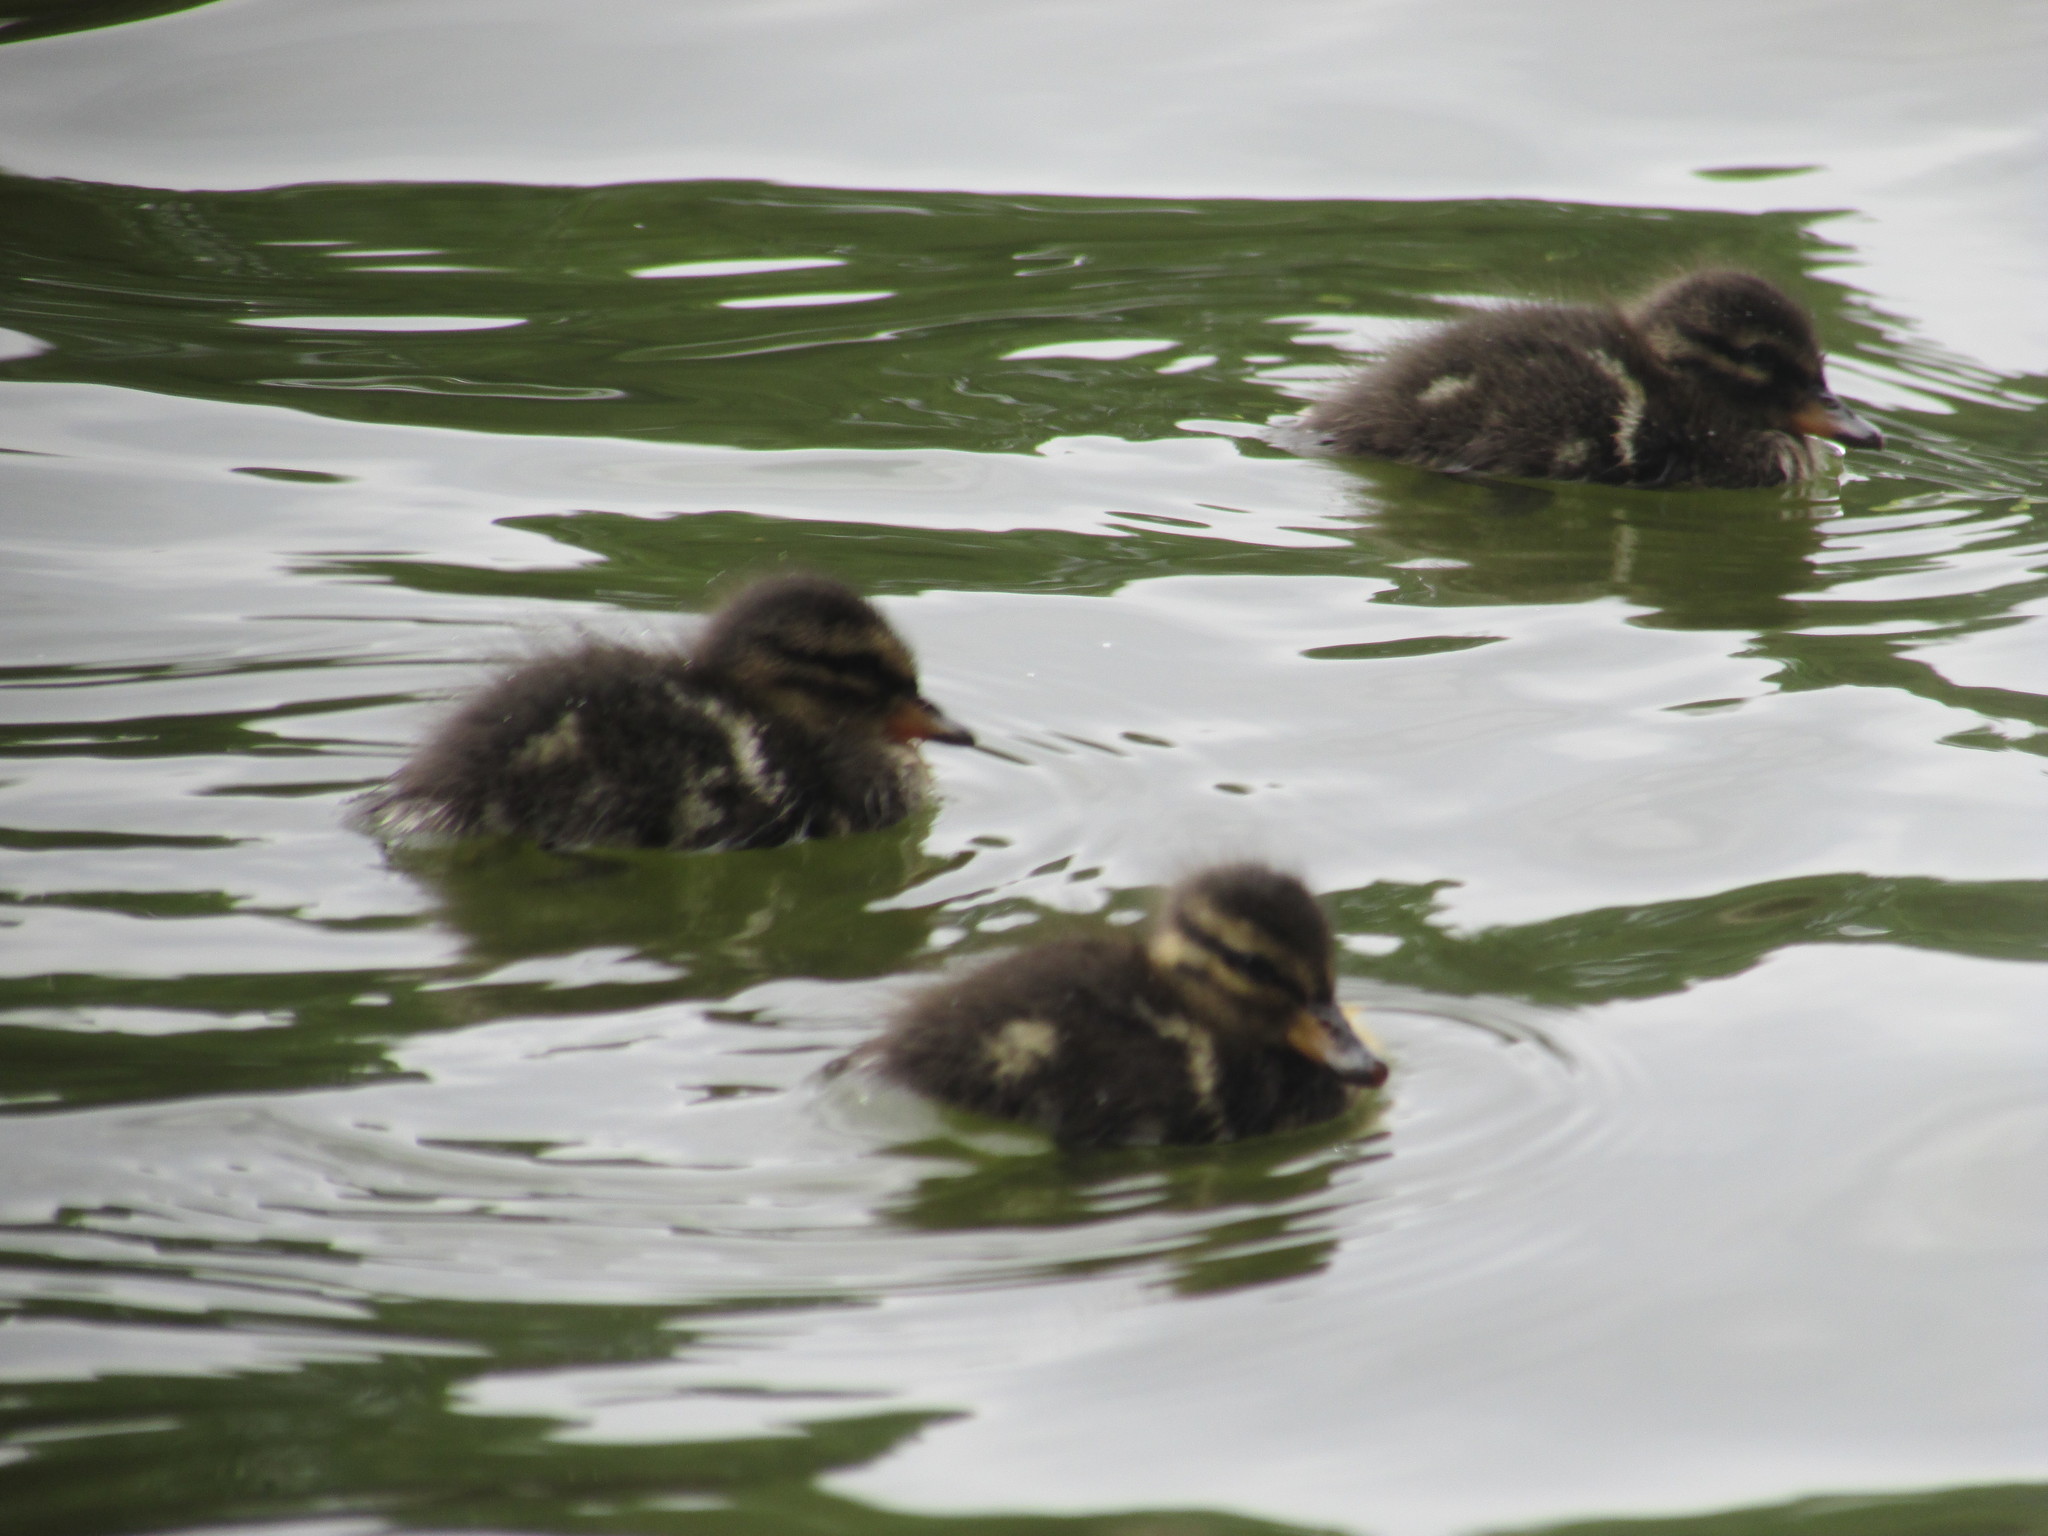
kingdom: Animalia
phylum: Chordata
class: Aves
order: Anseriformes
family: Anatidae
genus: Anas
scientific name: Anas flavirostris
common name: Yellow-billed teal
